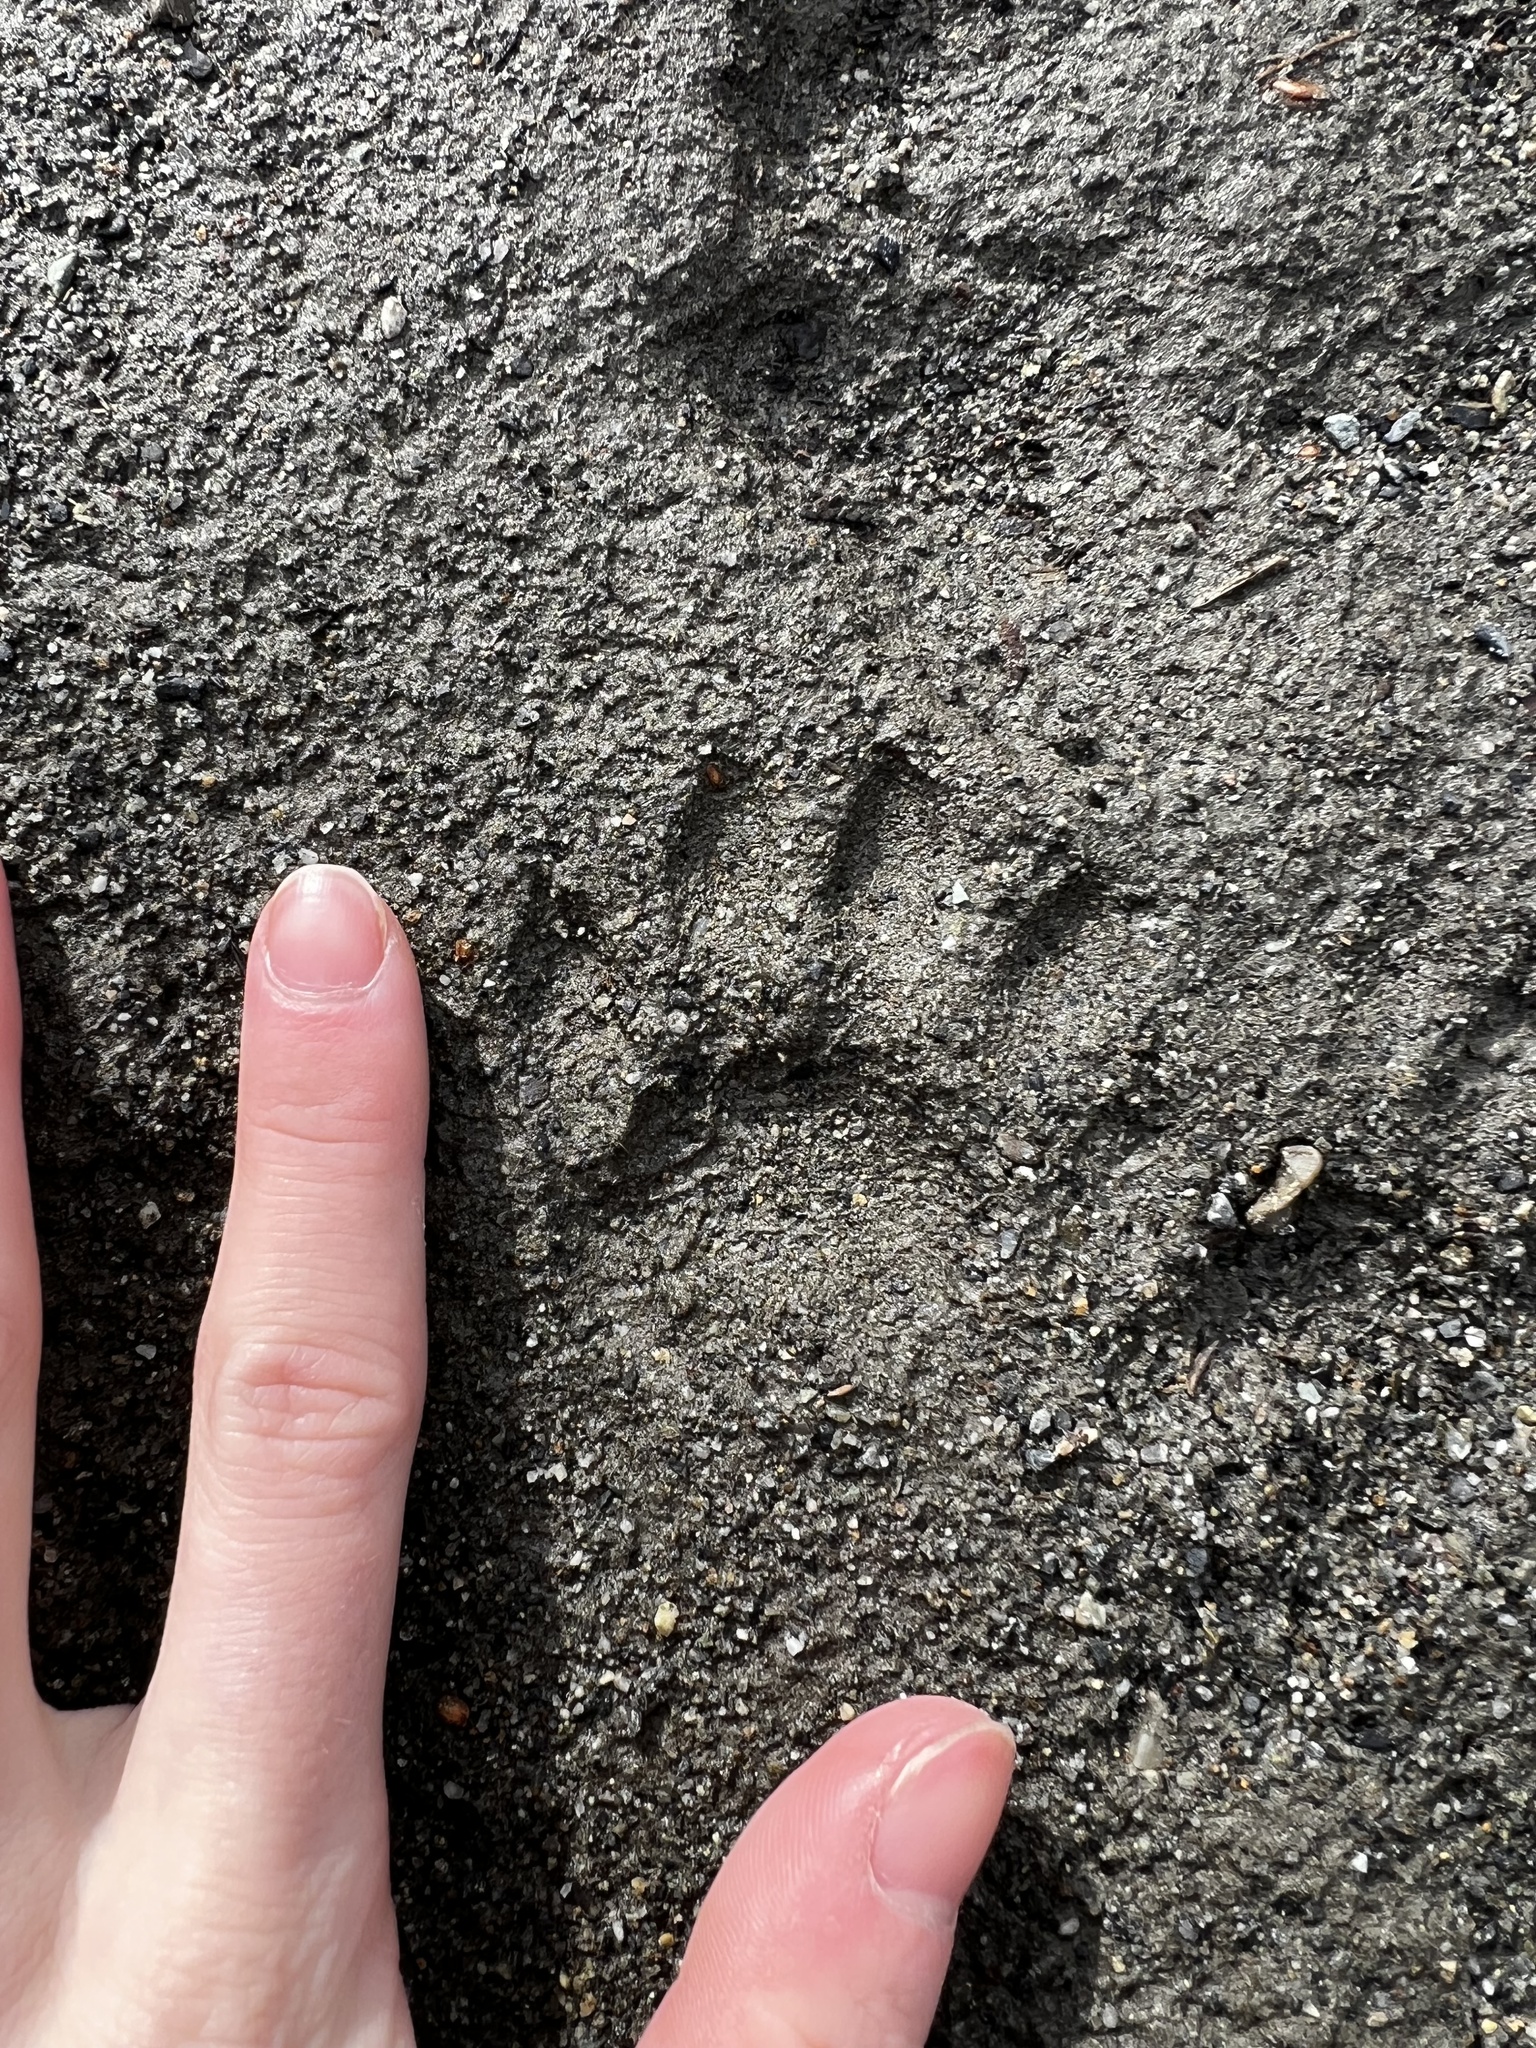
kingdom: Animalia
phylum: Chordata
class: Mammalia
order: Carnivora
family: Procyonidae
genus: Procyon
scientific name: Procyon lotor
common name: Raccoon
